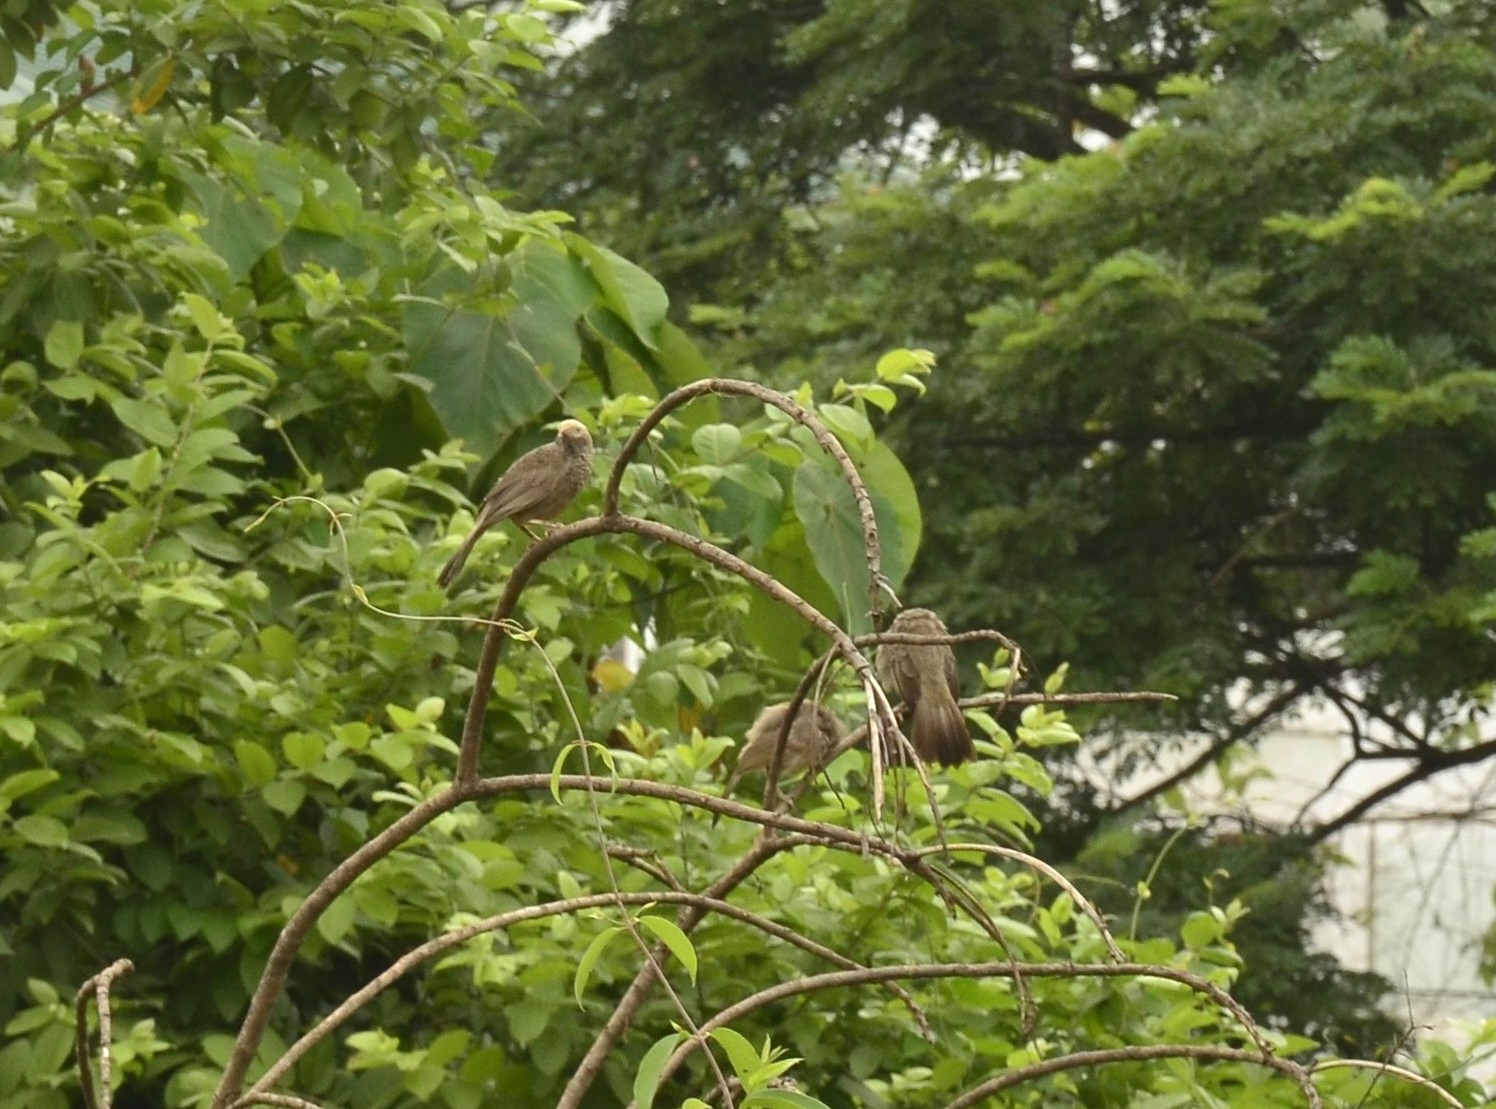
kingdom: Animalia
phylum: Chordata
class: Aves
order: Passeriformes
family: Leiothrichidae
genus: Turdoides
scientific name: Turdoides affinis
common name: Yellow-billed babbler
